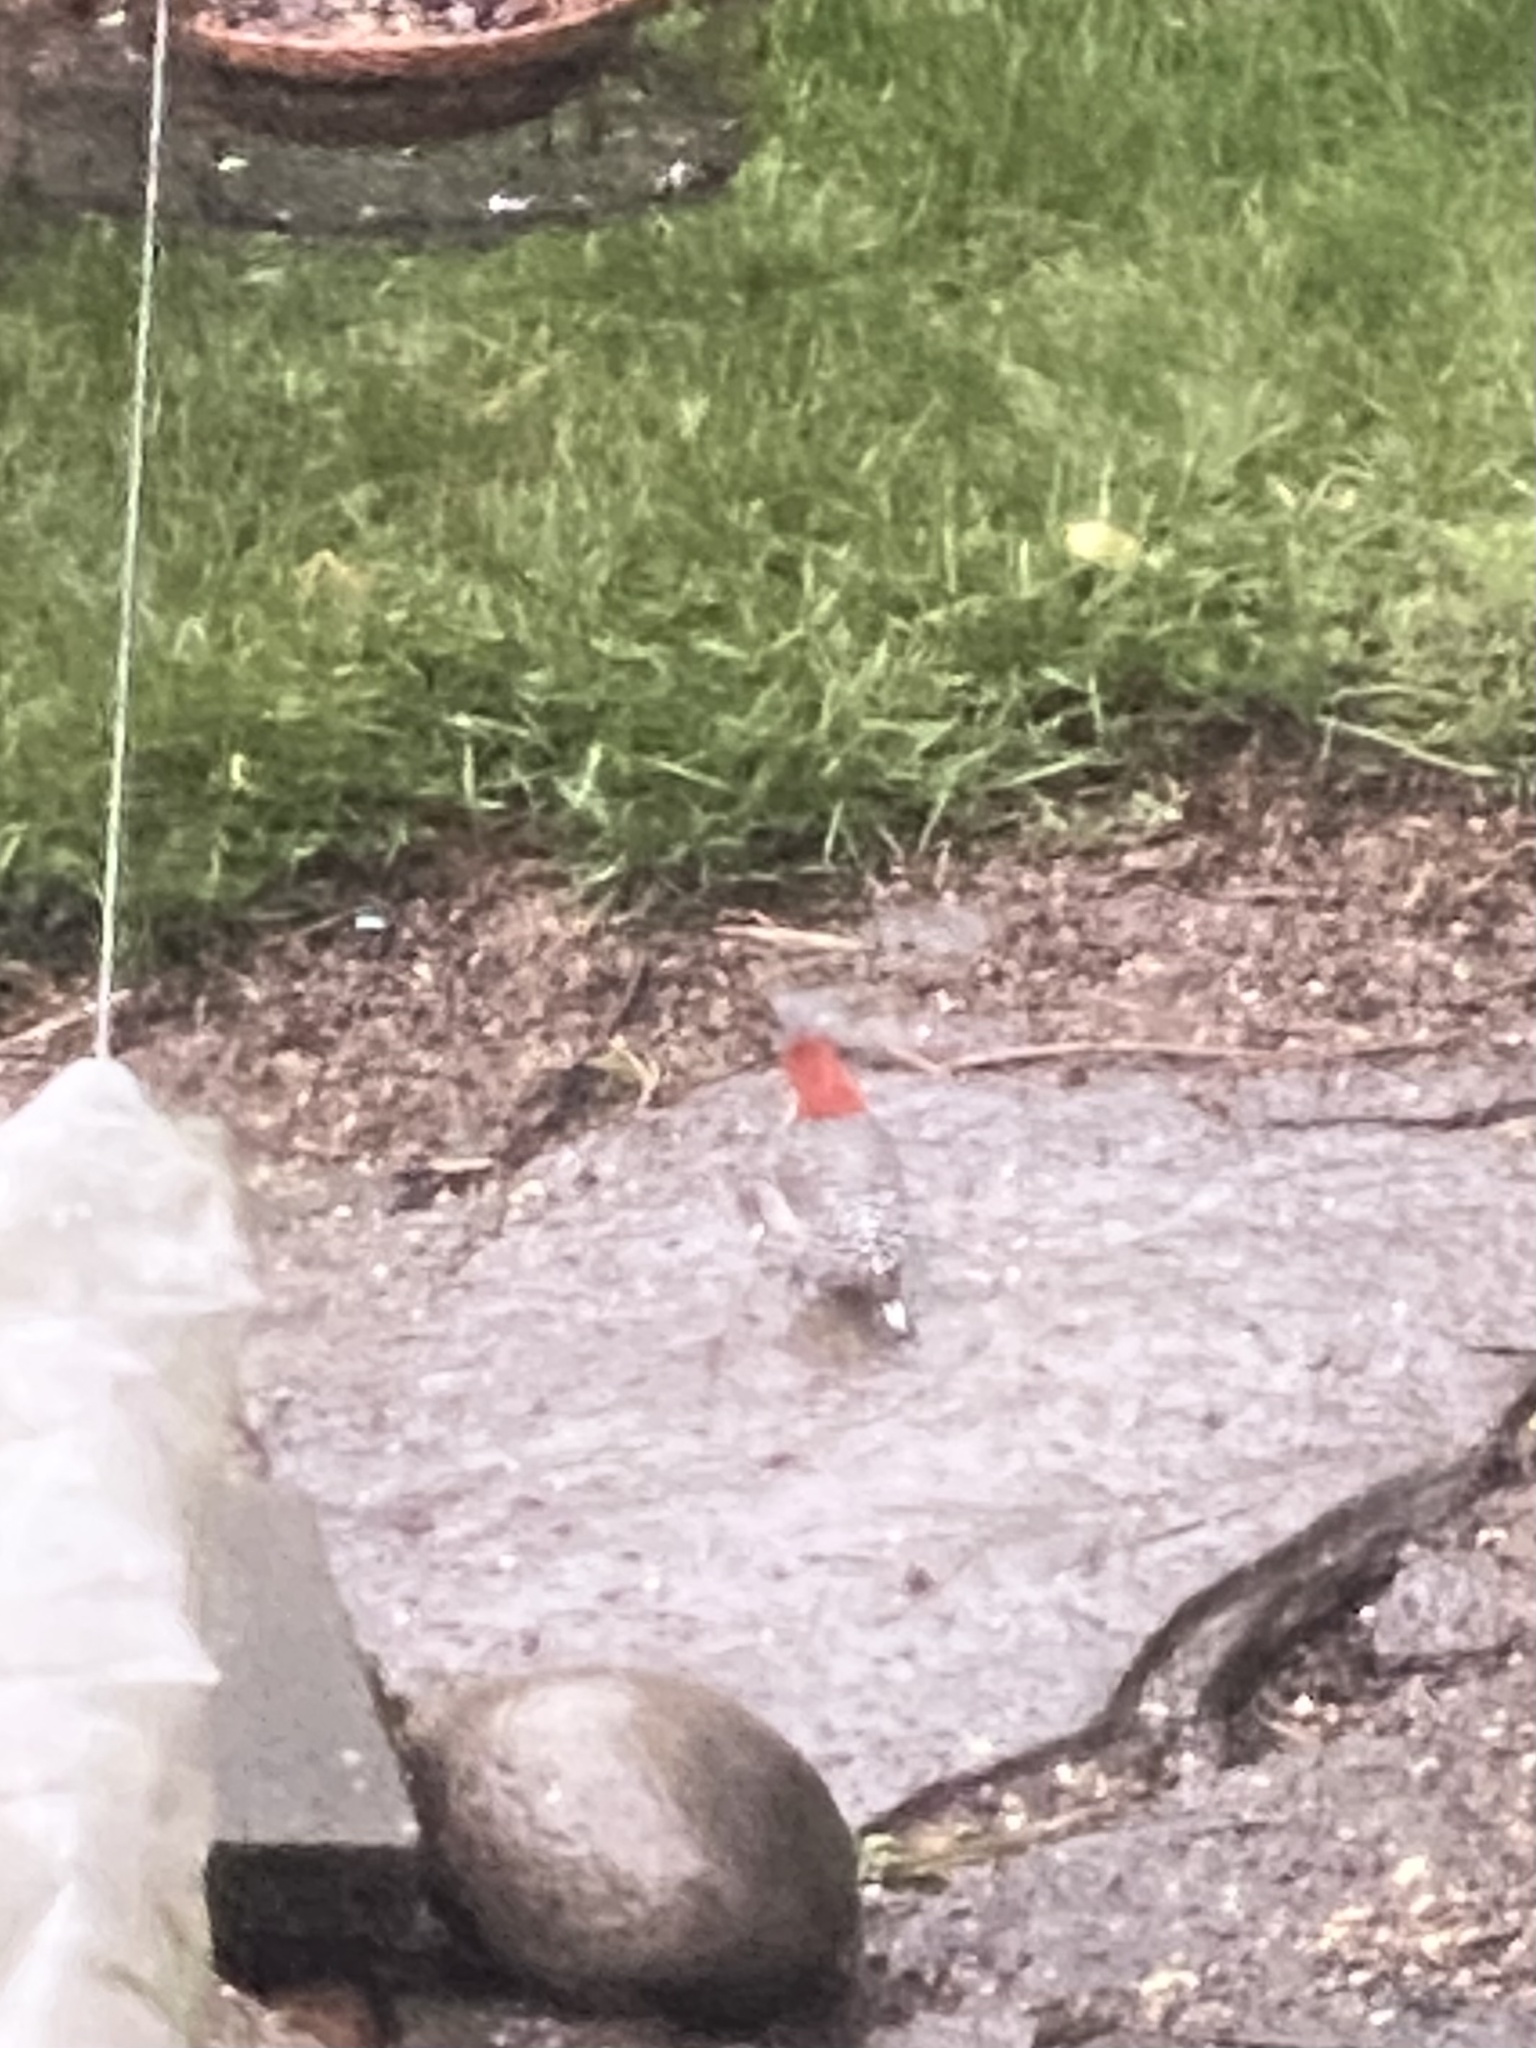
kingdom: Animalia
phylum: Chordata
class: Aves
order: Piciformes
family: Picidae
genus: Melanerpes
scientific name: Melanerpes carolinus
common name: Red-bellied woodpecker
